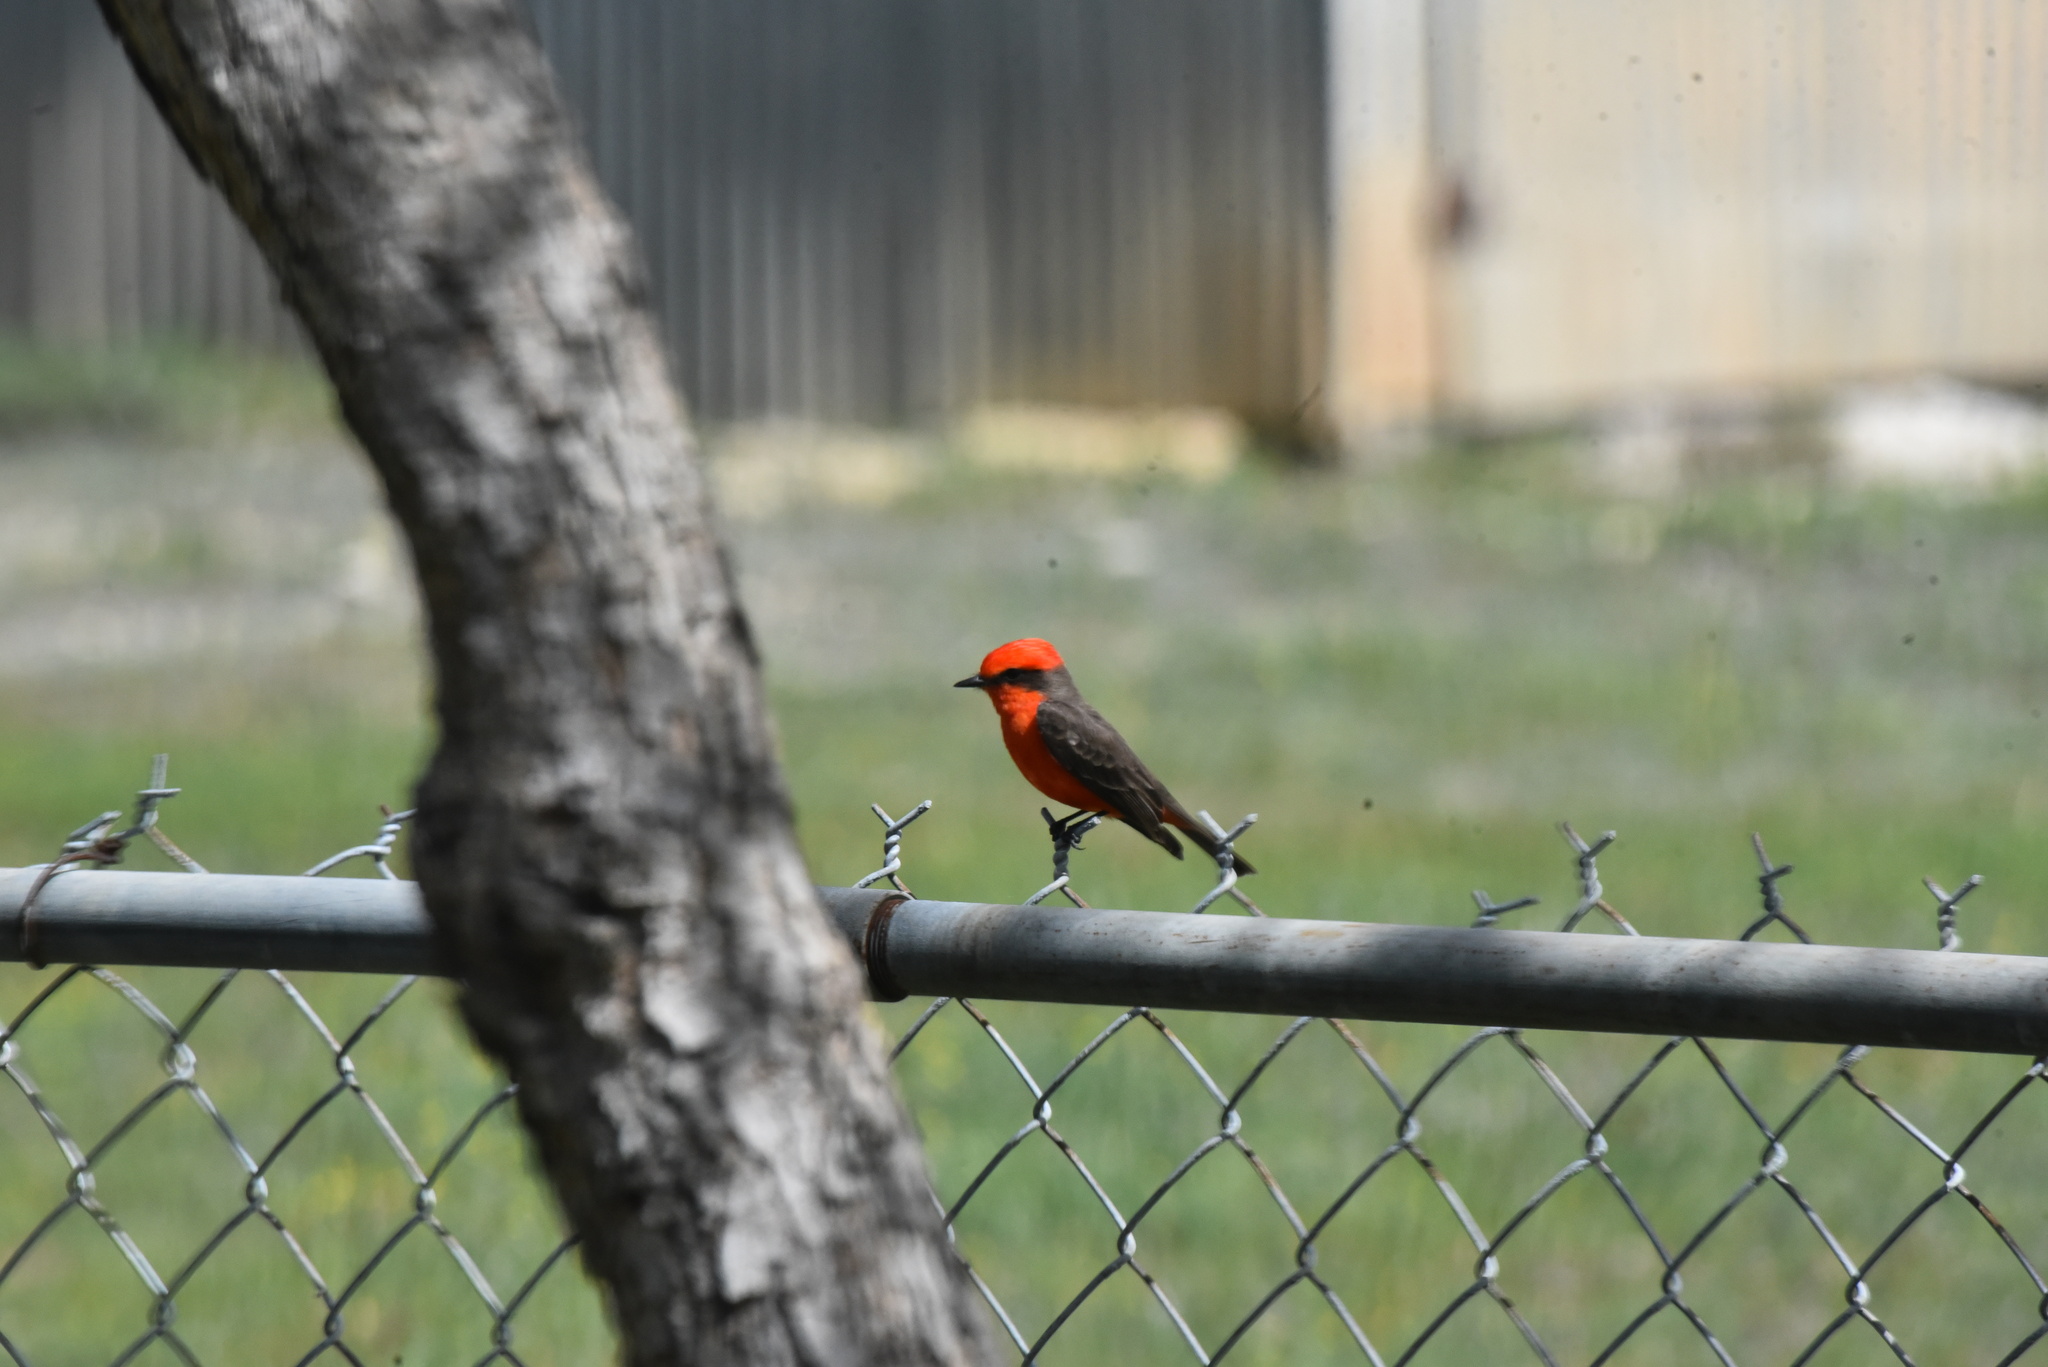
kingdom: Animalia
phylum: Chordata
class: Aves
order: Passeriformes
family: Tyrannidae
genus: Pyrocephalus
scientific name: Pyrocephalus rubinus
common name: Vermilion flycatcher
